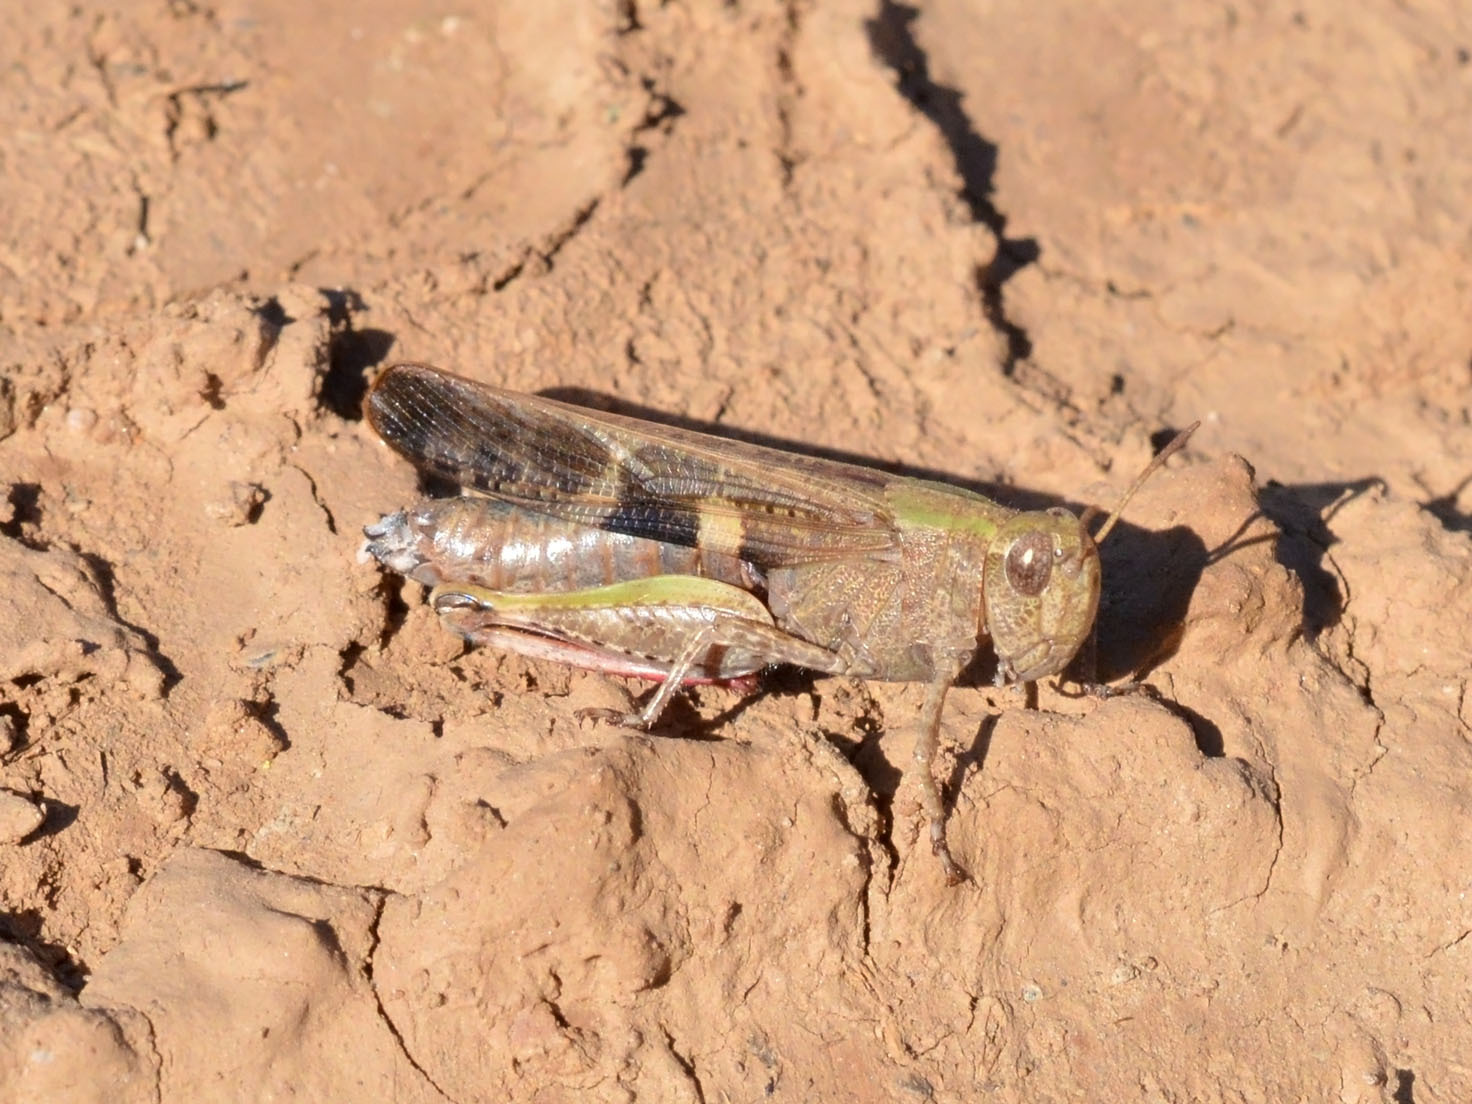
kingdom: Animalia
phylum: Arthropoda
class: Insecta
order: Orthoptera
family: Acrididae
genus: Aiolopus
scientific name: Aiolopus strepens
